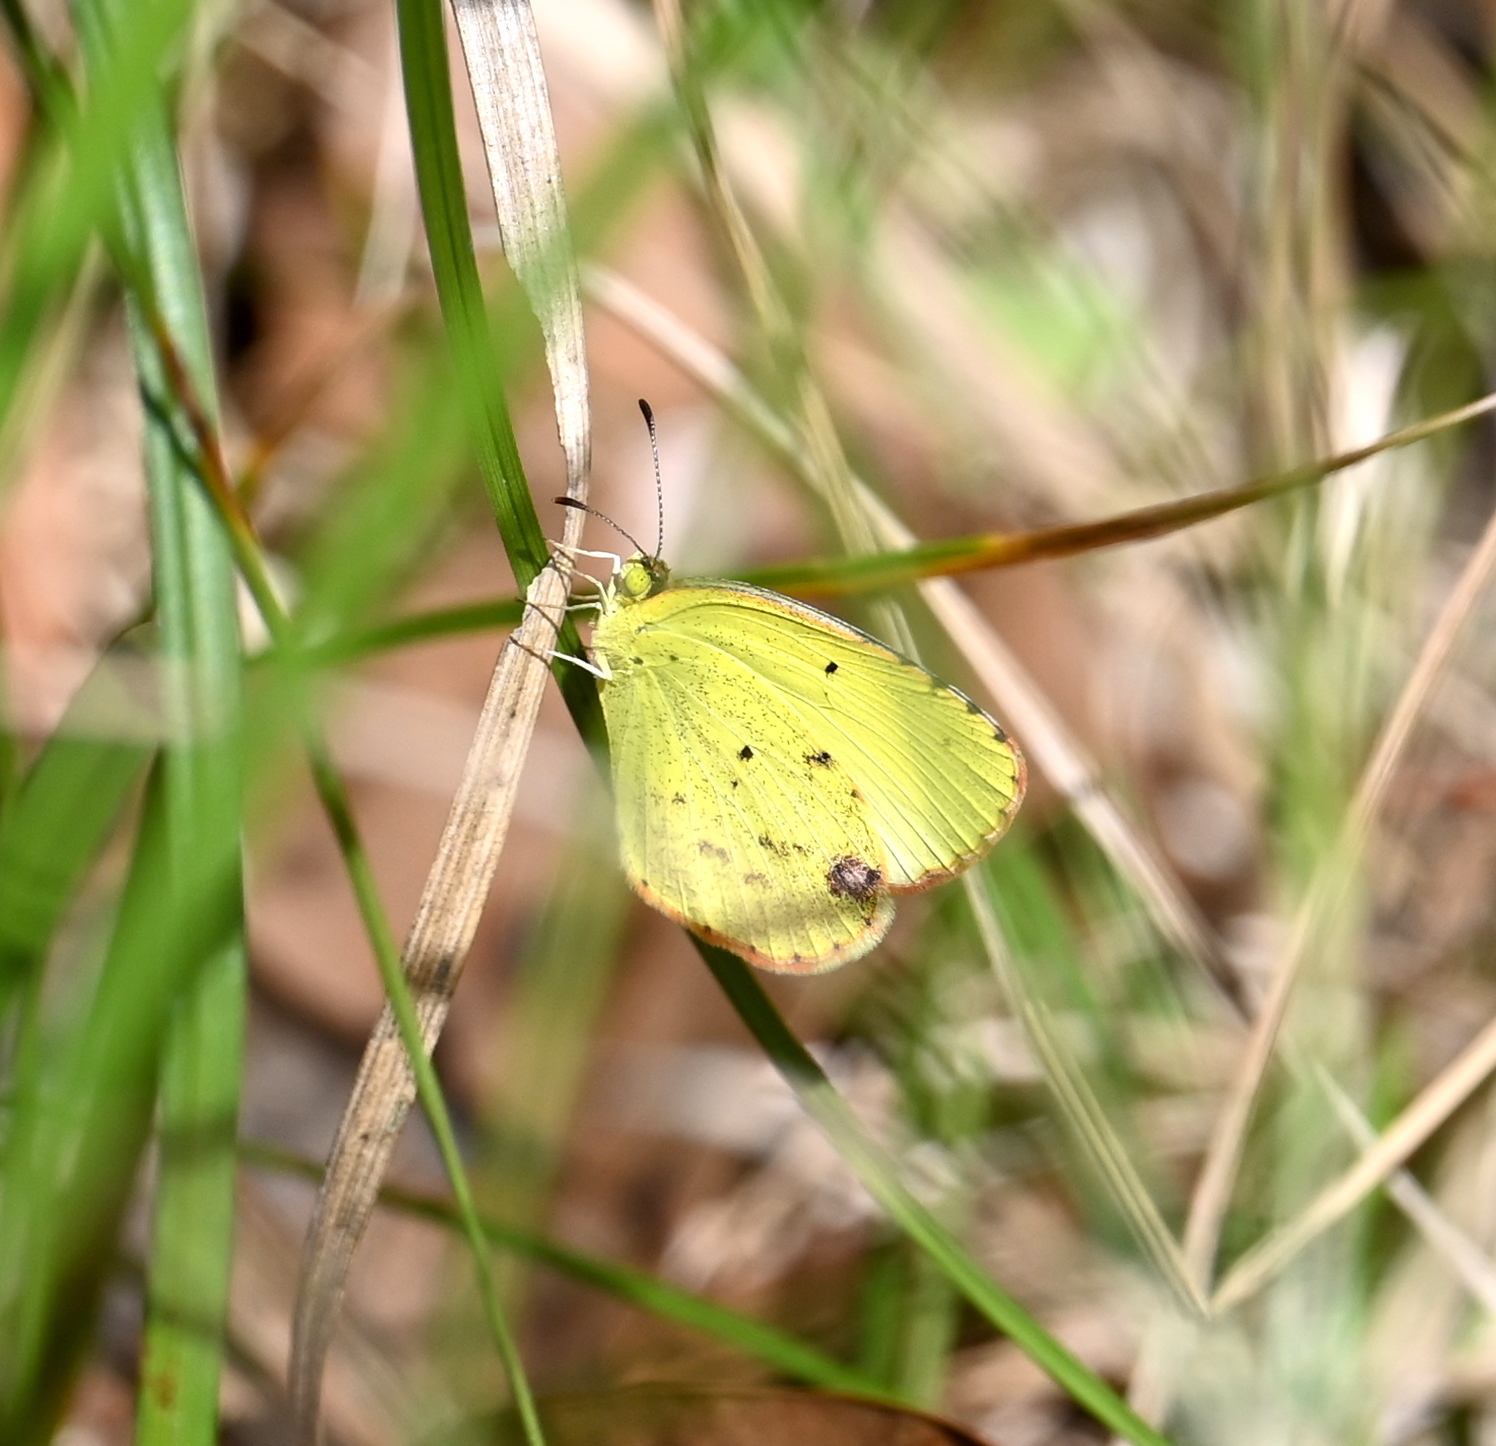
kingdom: Animalia
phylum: Arthropoda
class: Insecta
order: Lepidoptera
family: Pieridae
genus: Pyrisitia
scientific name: Pyrisitia lisa
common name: Little yellow
